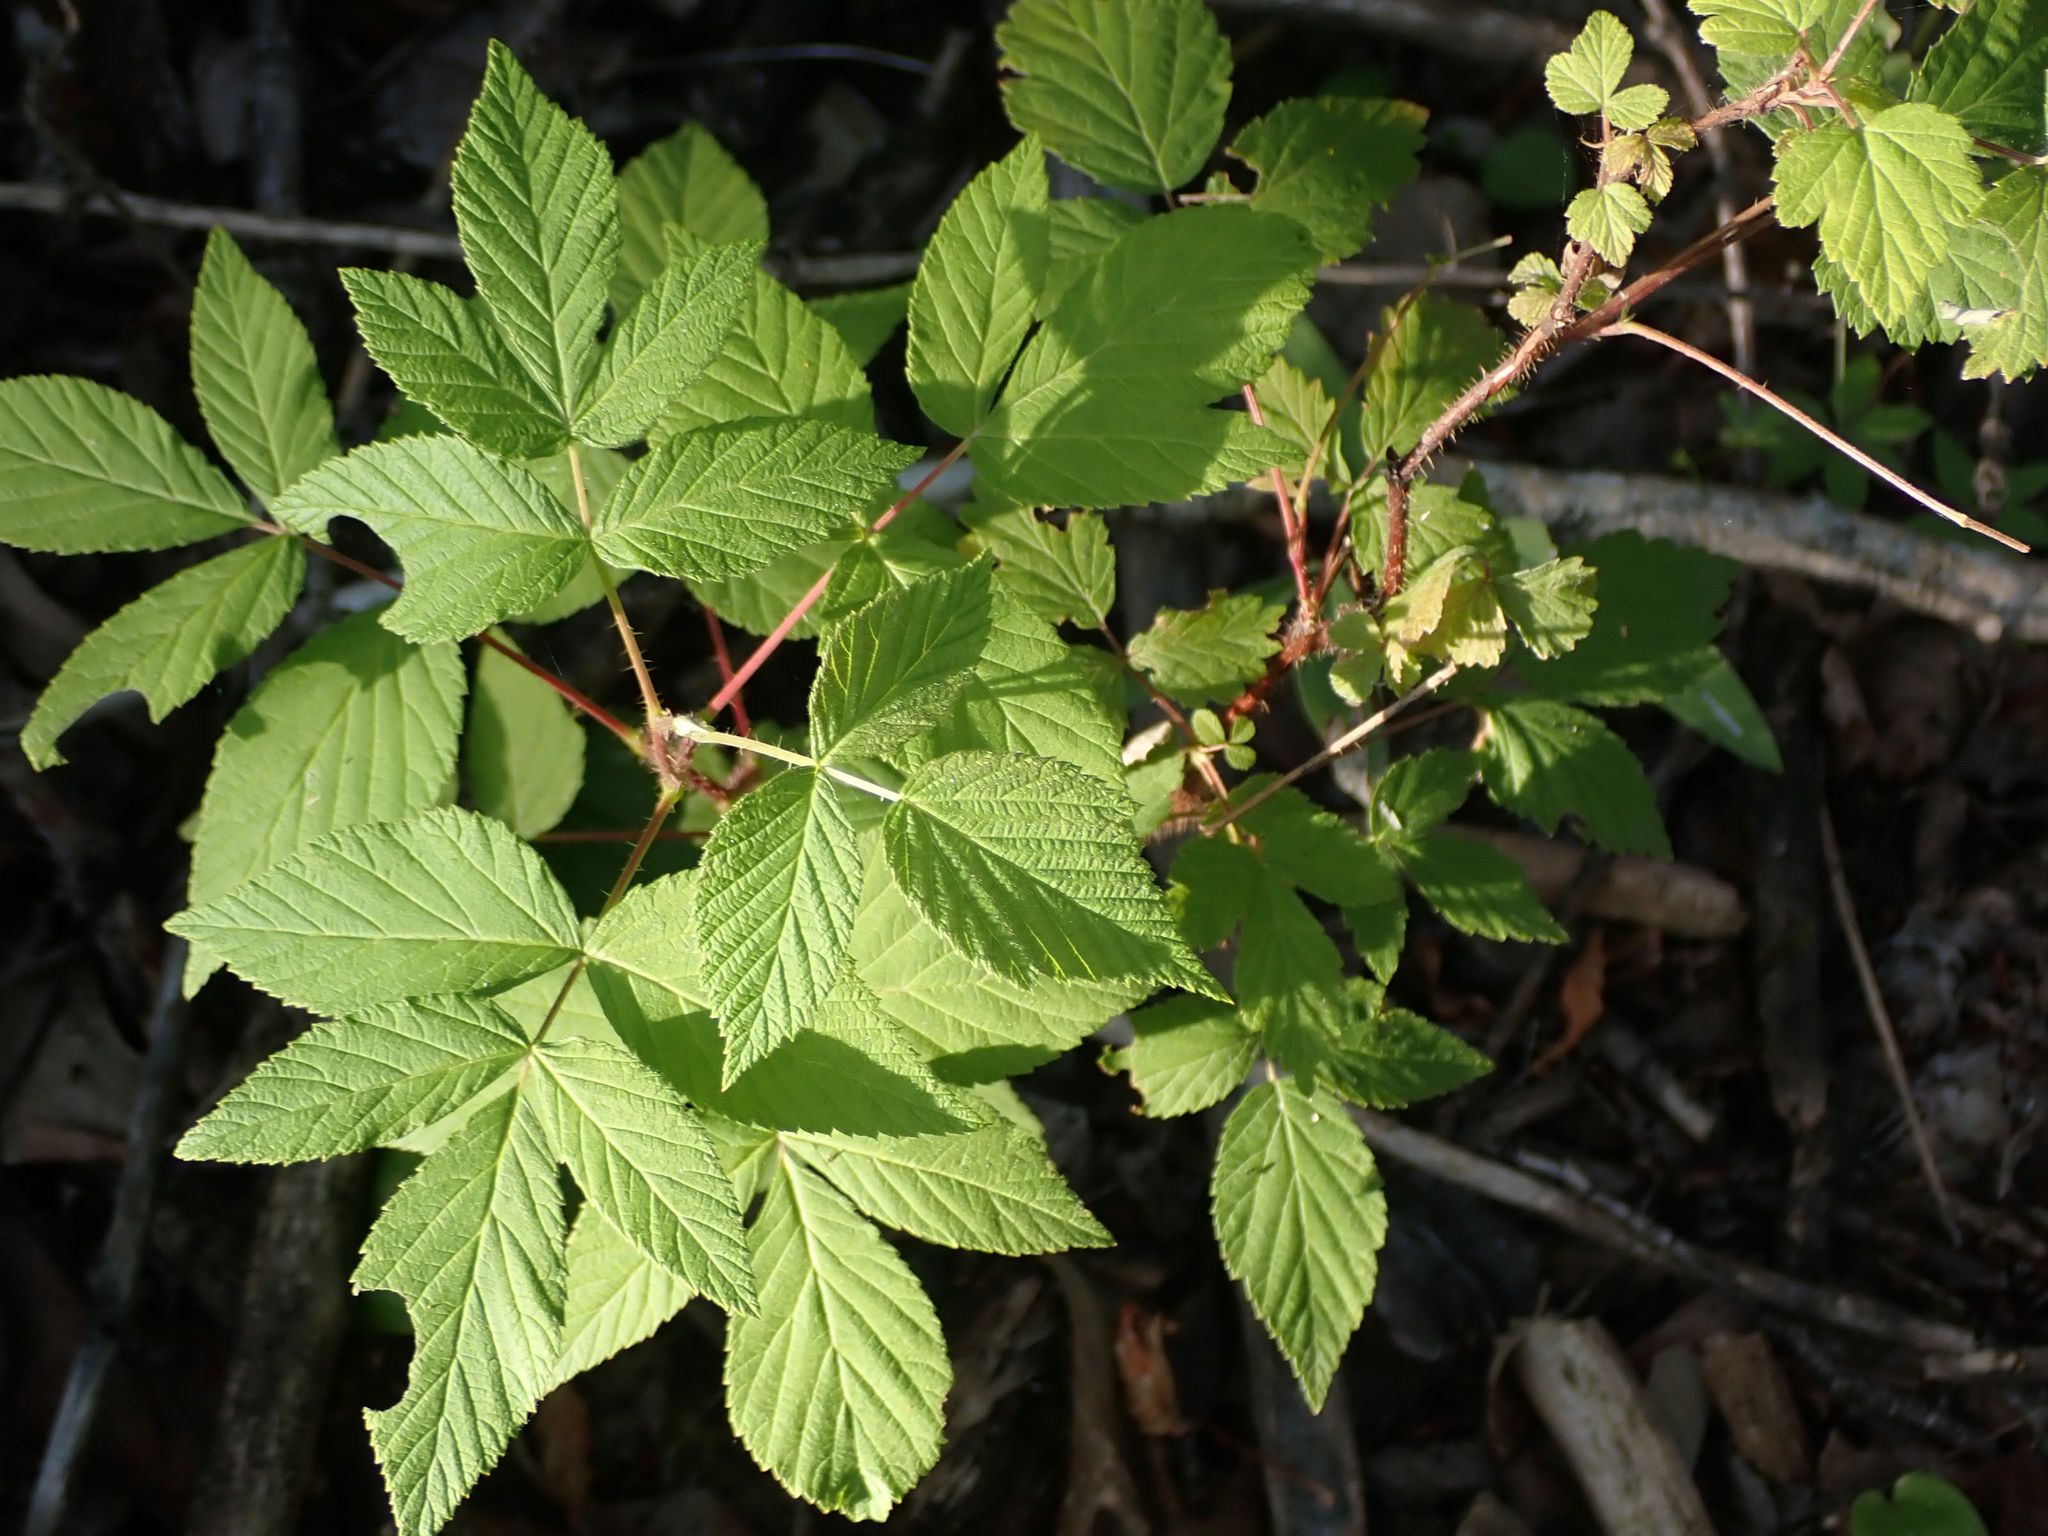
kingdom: Plantae
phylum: Tracheophyta
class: Magnoliopsida
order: Rosales
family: Rosaceae
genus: Rubus
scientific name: Rubus idaeus
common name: Raspberry
